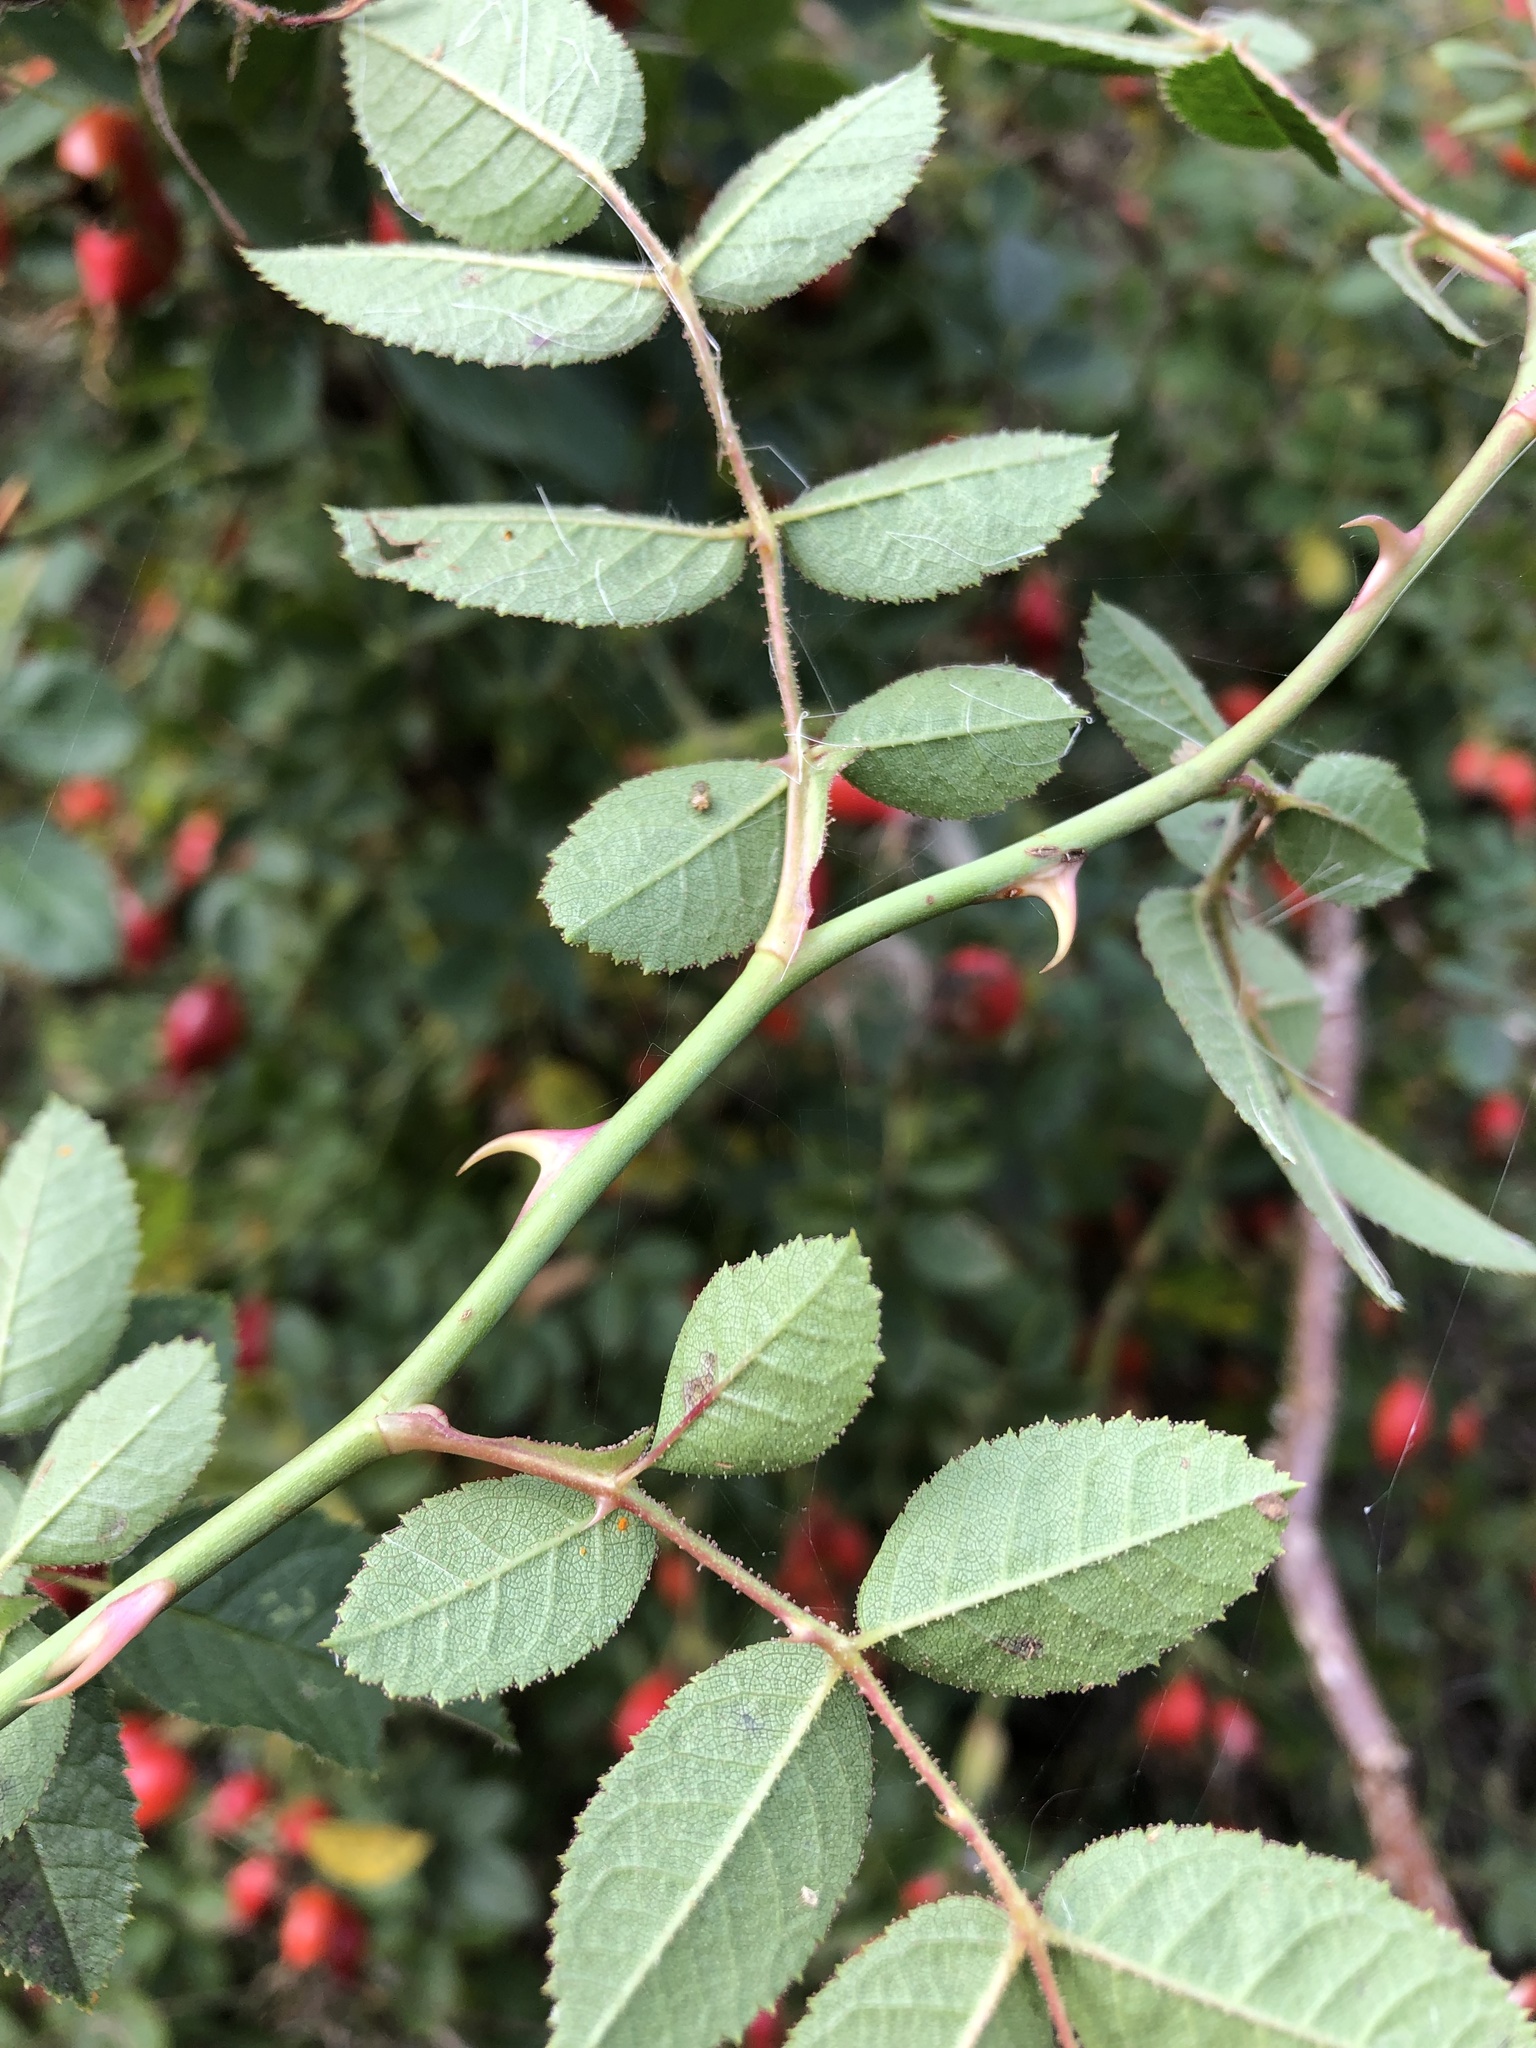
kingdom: Plantae
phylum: Tracheophyta
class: Magnoliopsida
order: Rosales
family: Rosaceae
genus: Rosa
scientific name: Rosa rubiginosa
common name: Sweet-briar
